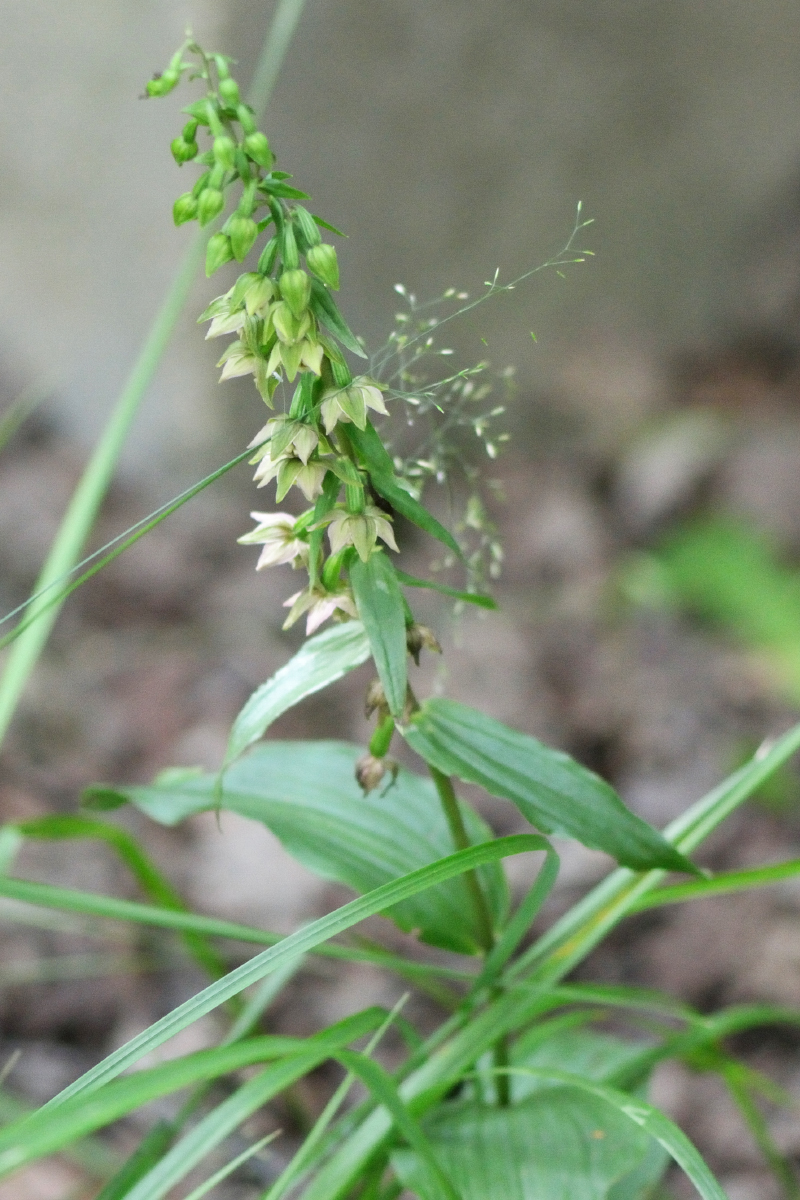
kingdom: Plantae
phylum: Tracheophyta
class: Liliopsida
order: Asparagales
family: Orchidaceae
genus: Epipactis
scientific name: Epipactis helleborine
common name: Broad-leaved helleborine
